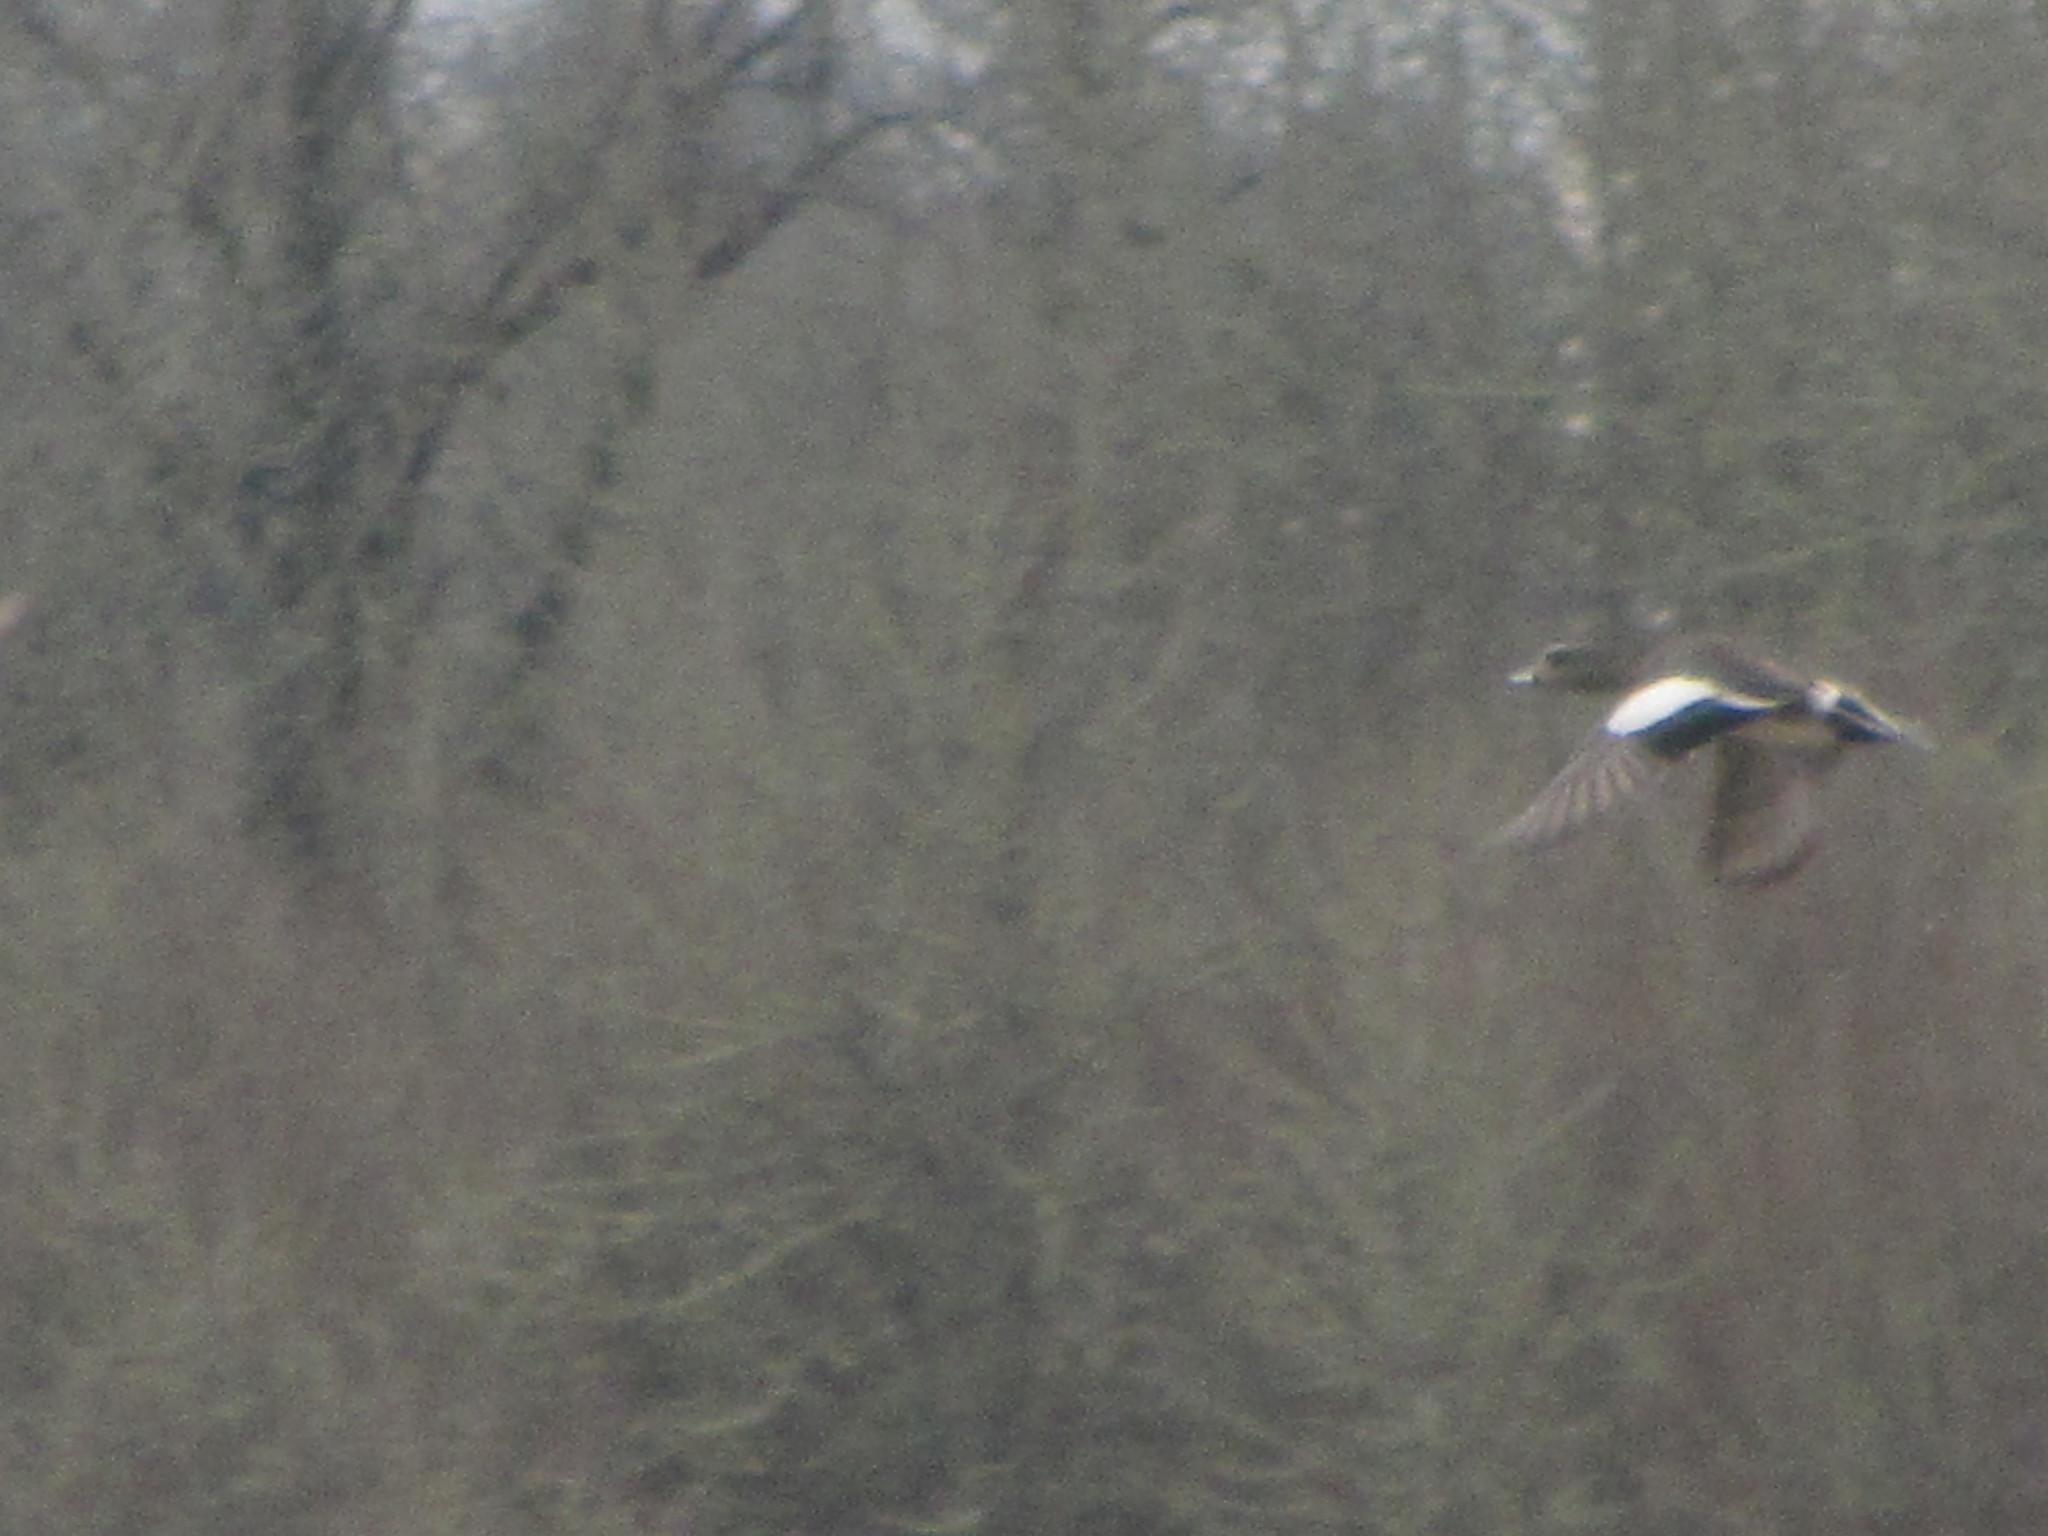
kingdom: Animalia
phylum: Chordata
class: Aves
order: Anseriformes
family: Anatidae
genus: Mareca
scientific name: Mareca americana
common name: American wigeon
